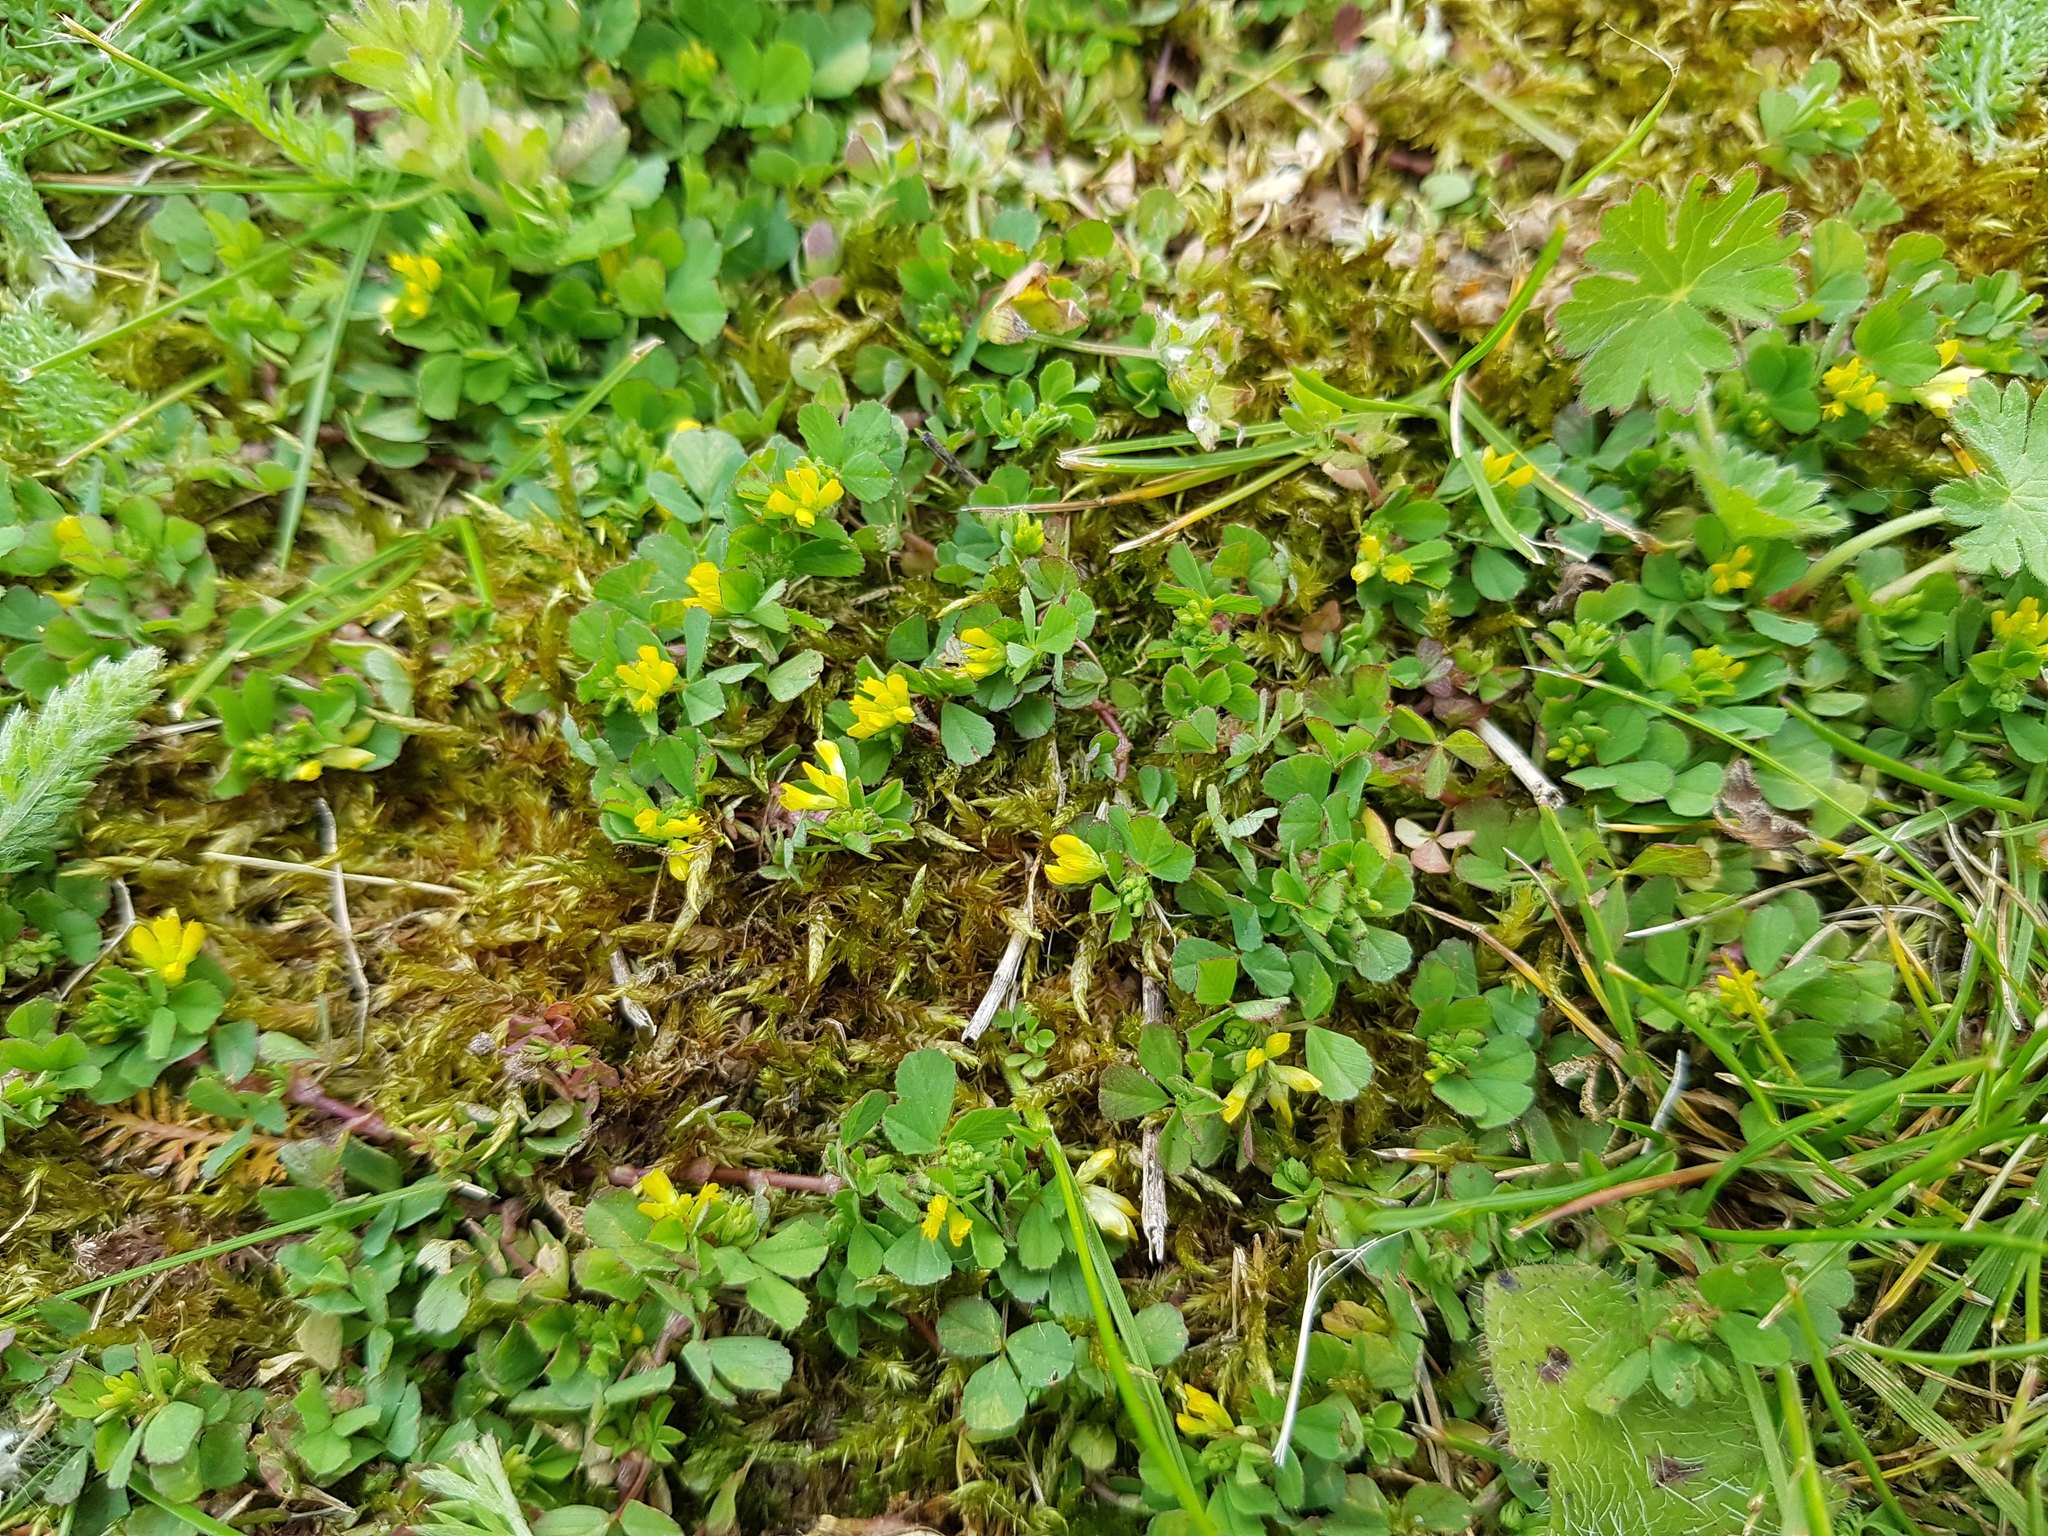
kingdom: Plantae
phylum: Tracheophyta
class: Magnoliopsida
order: Fabales
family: Fabaceae
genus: Trifolium
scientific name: Trifolium dubium
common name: Suckling clover
